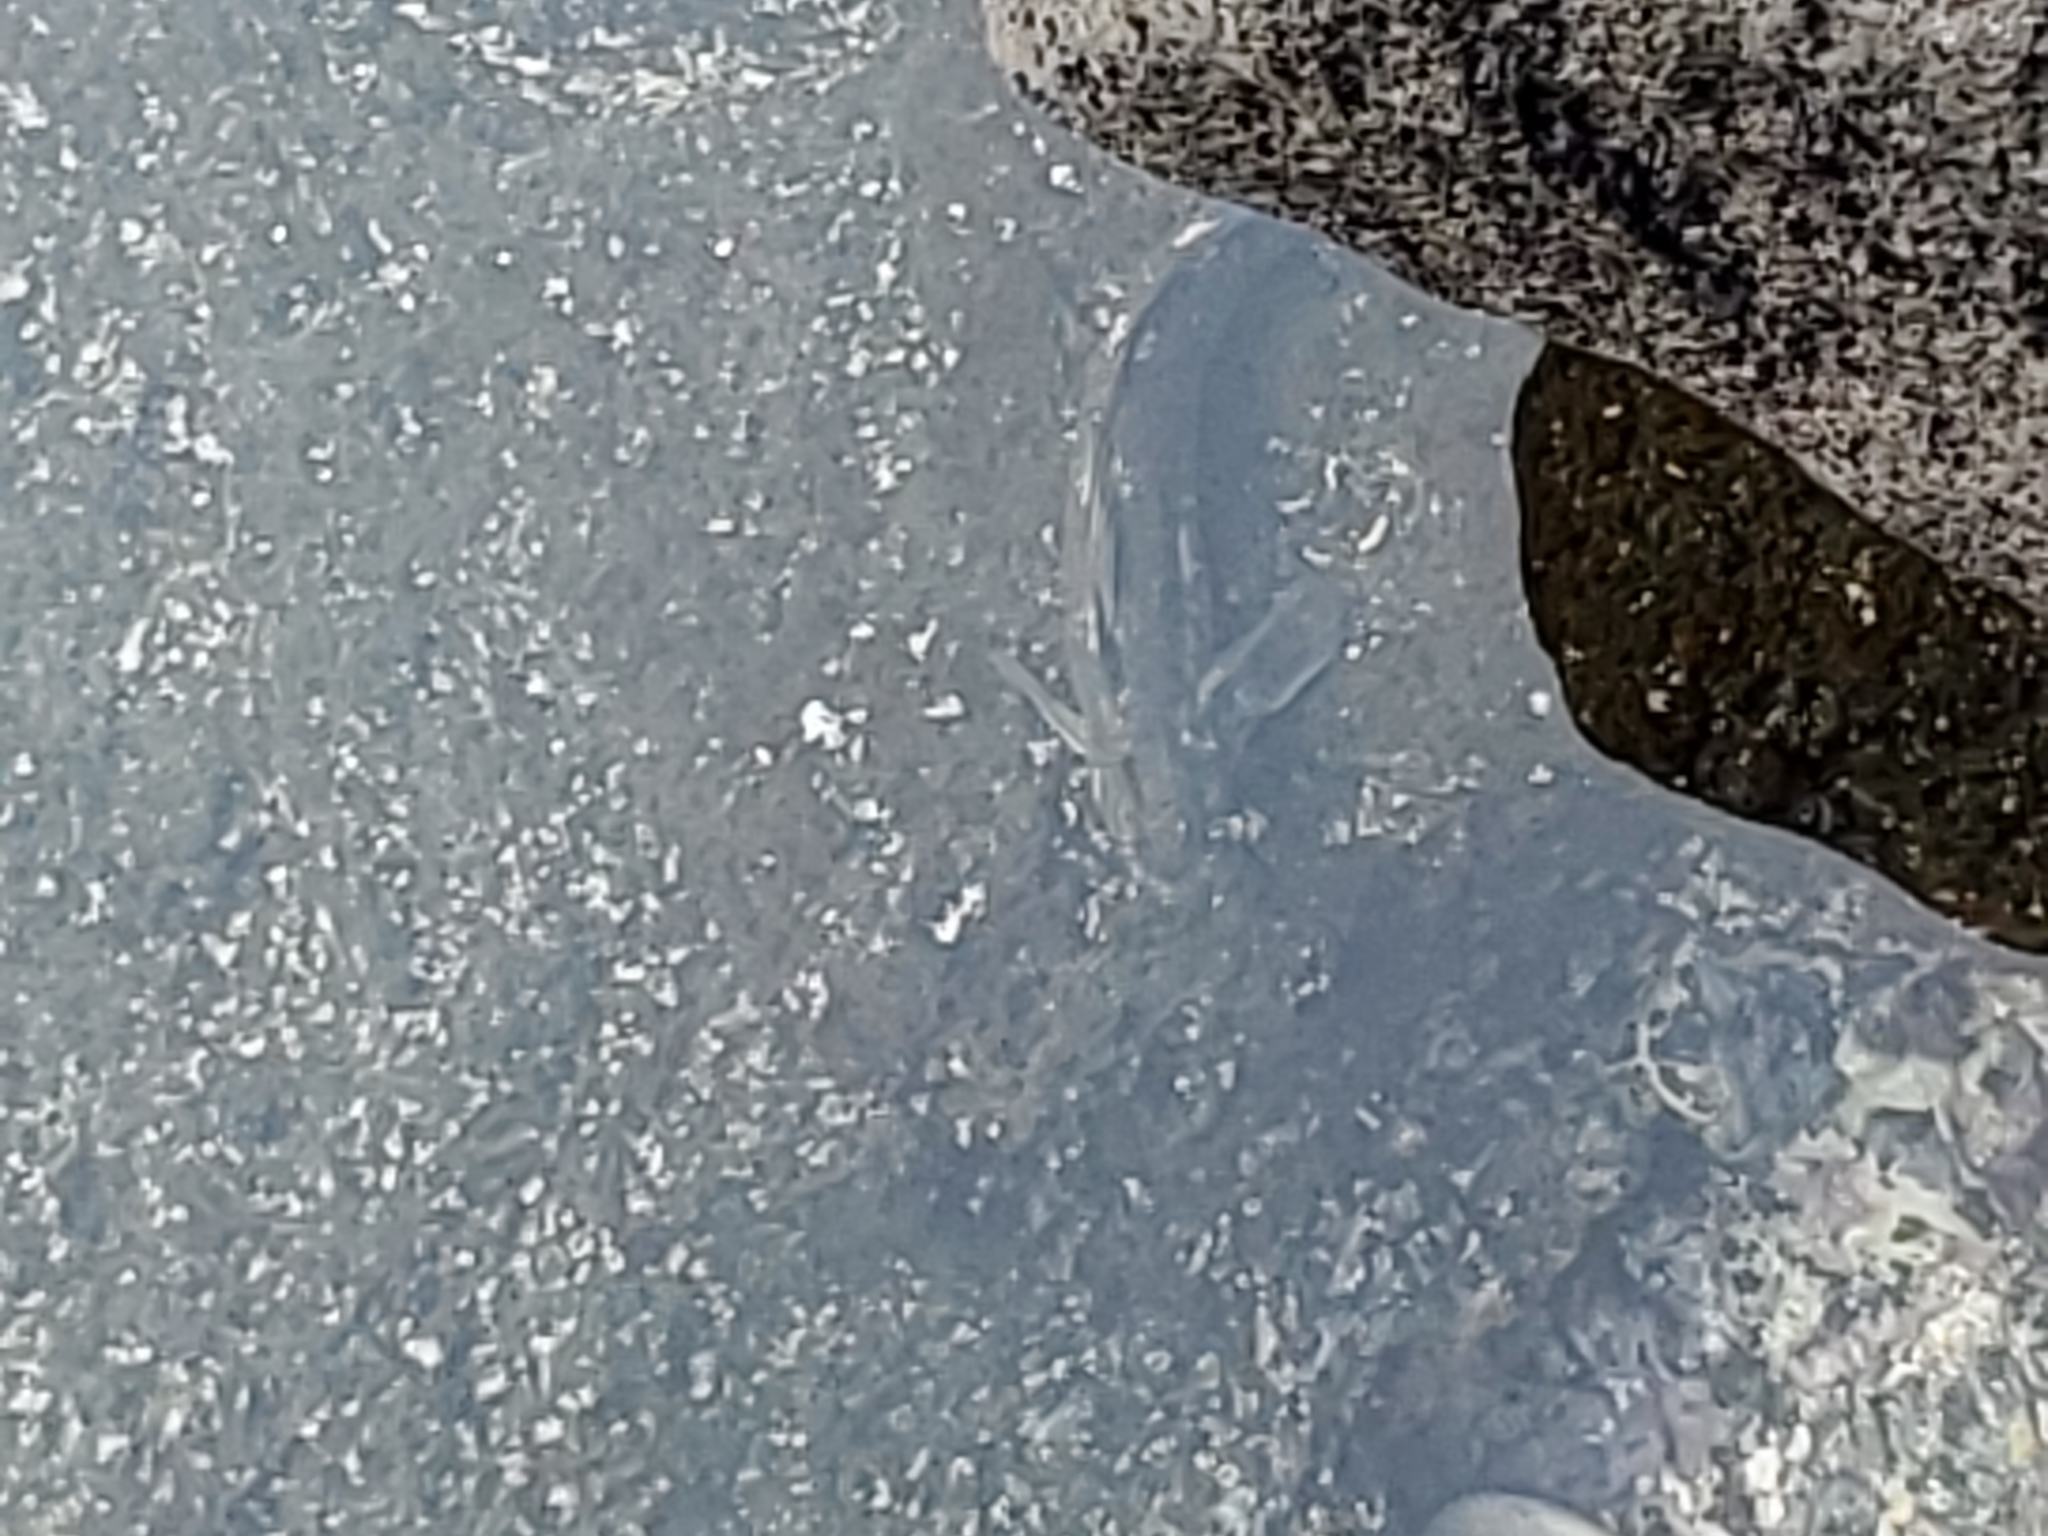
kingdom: Animalia
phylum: Chordata
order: Perciformes
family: Blenniidae
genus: Istiblennius
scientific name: Istiblennius zebra
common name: Zebra blenny
